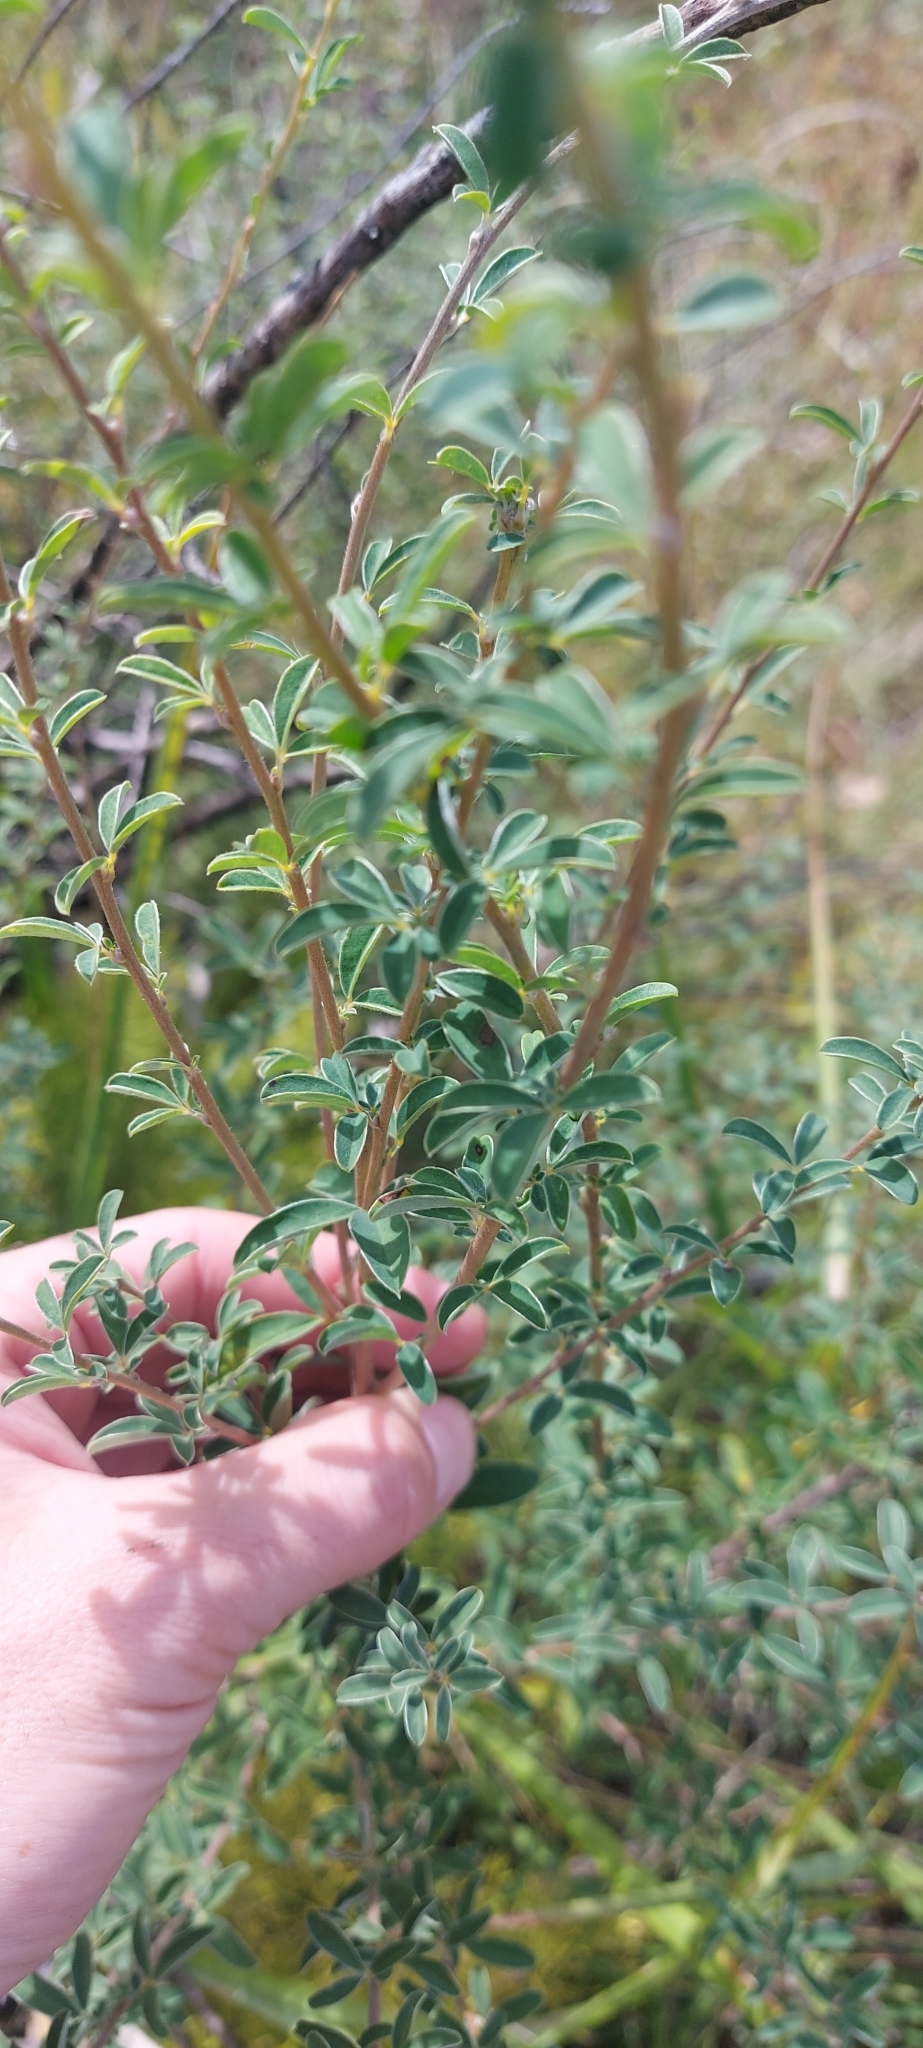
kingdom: Plantae
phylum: Tracheophyta
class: Magnoliopsida
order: Fabales
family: Fabaceae
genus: Chamaecytisus
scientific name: Chamaecytisus ruthenicus
